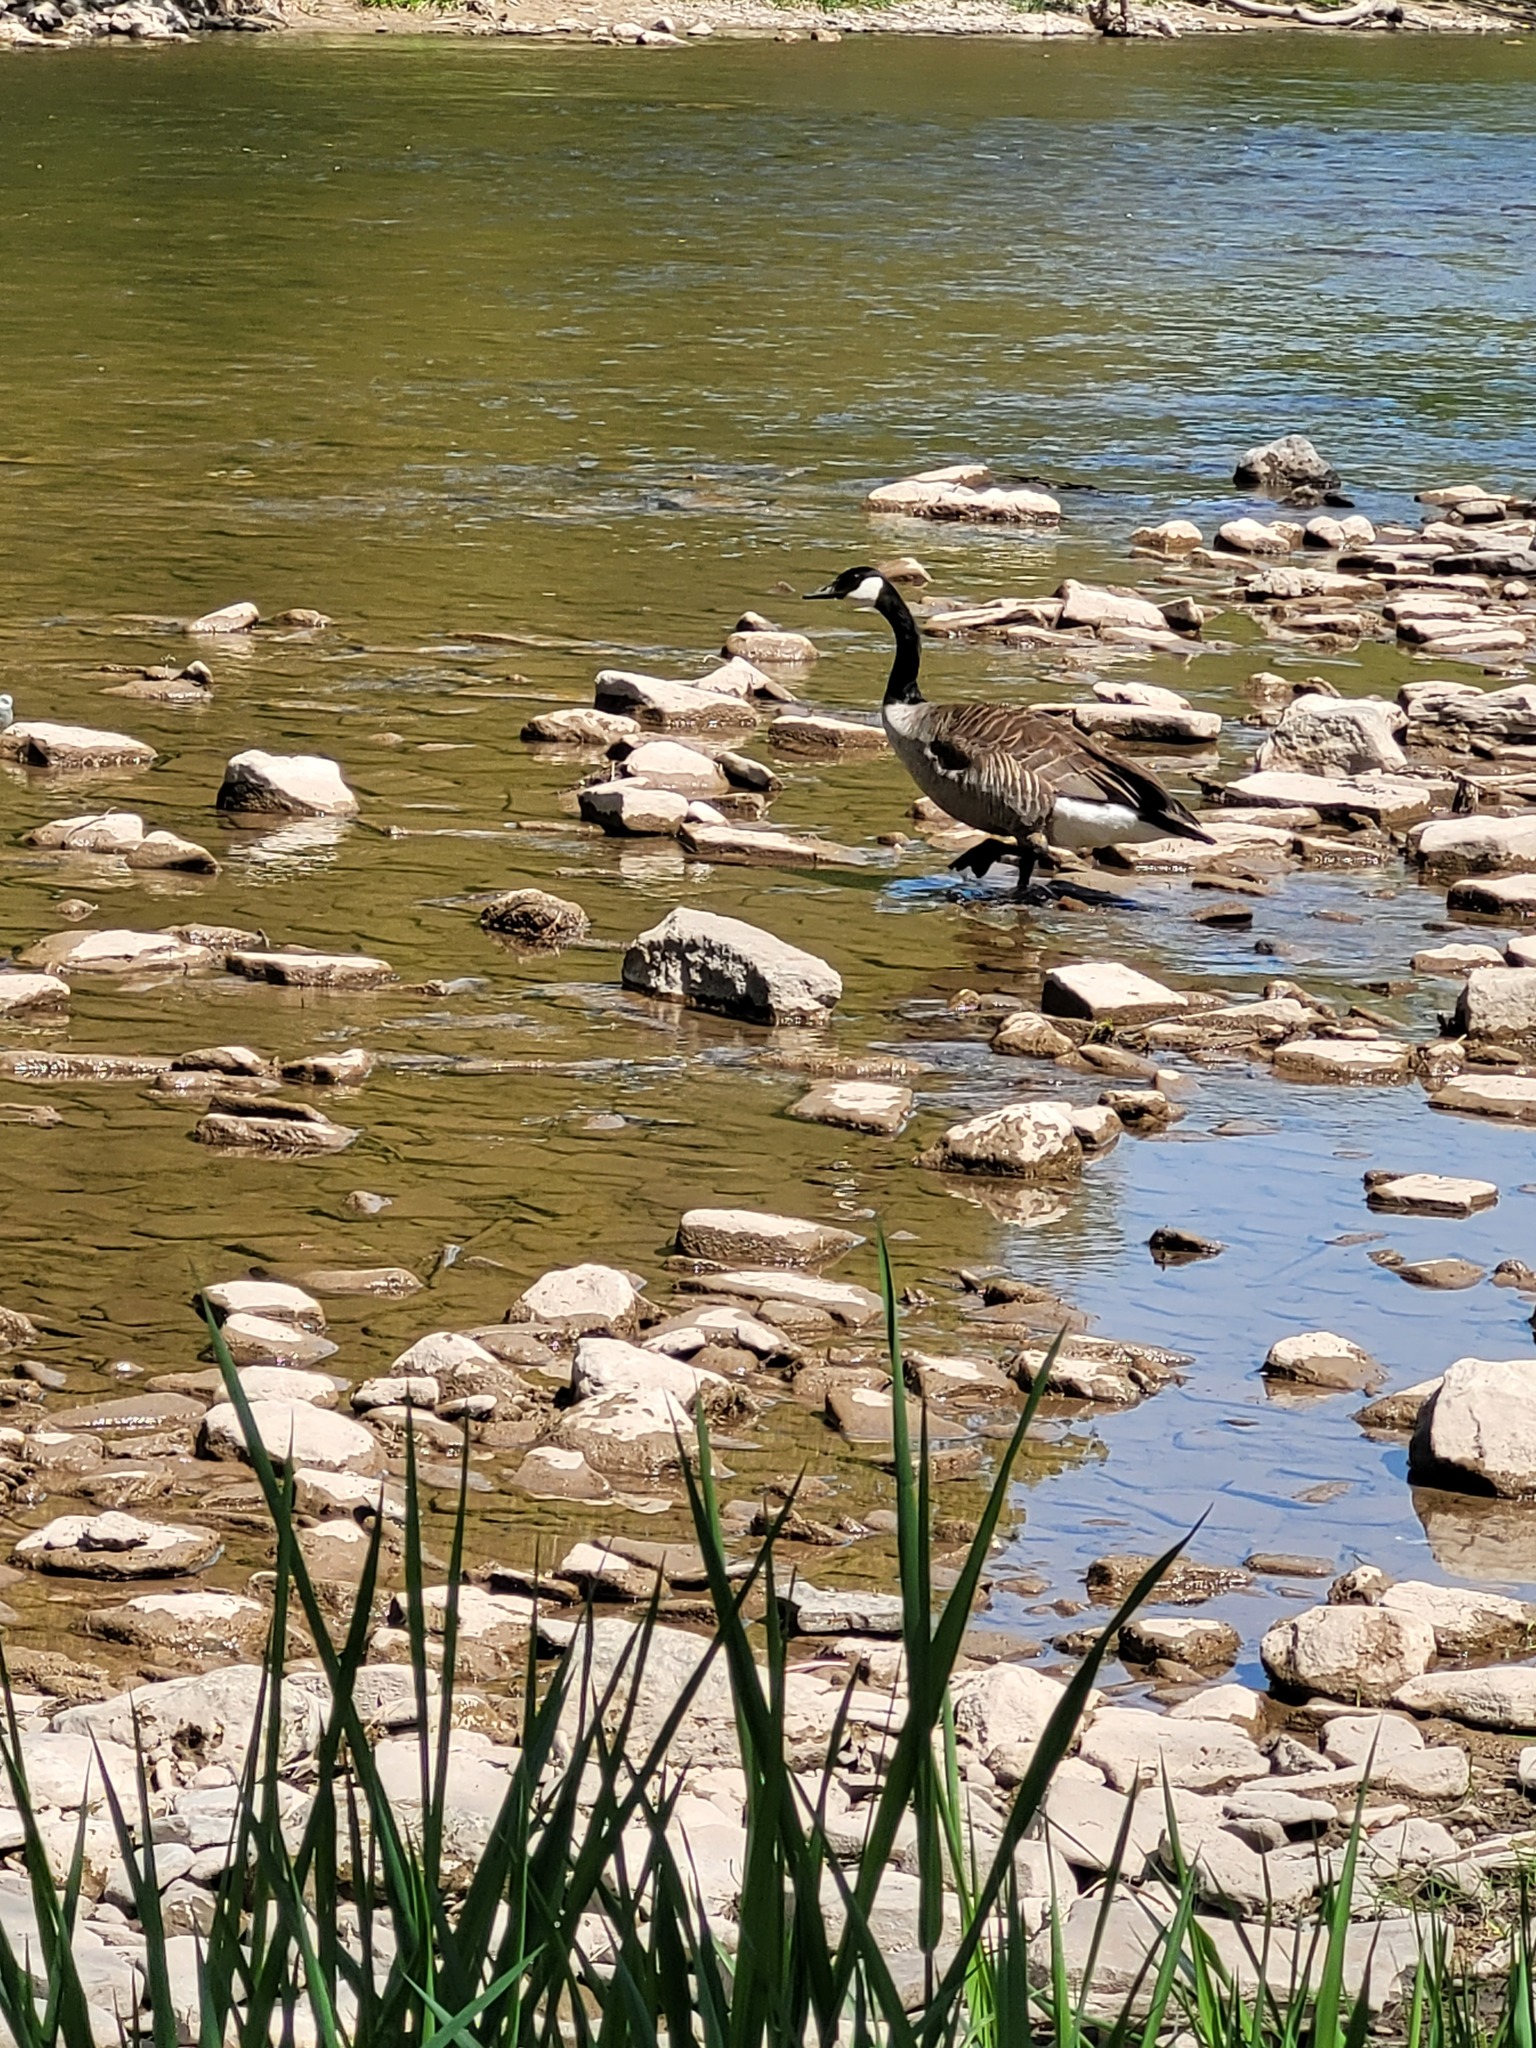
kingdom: Animalia
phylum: Chordata
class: Aves
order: Anseriformes
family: Anatidae
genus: Branta
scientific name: Branta canadensis
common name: Canada goose
